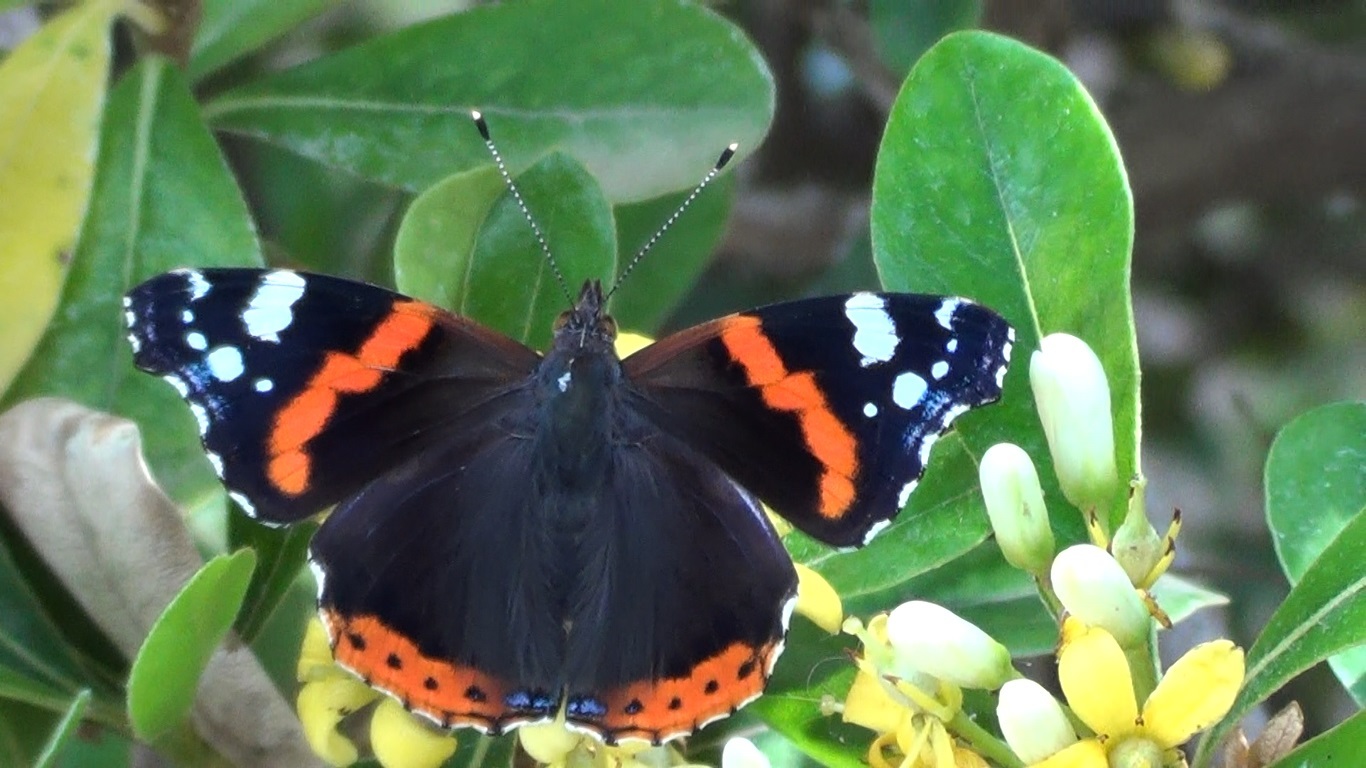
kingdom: Animalia
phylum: Arthropoda
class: Insecta
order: Lepidoptera
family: Nymphalidae
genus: Vanessa
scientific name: Vanessa atalanta
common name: Red admiral
